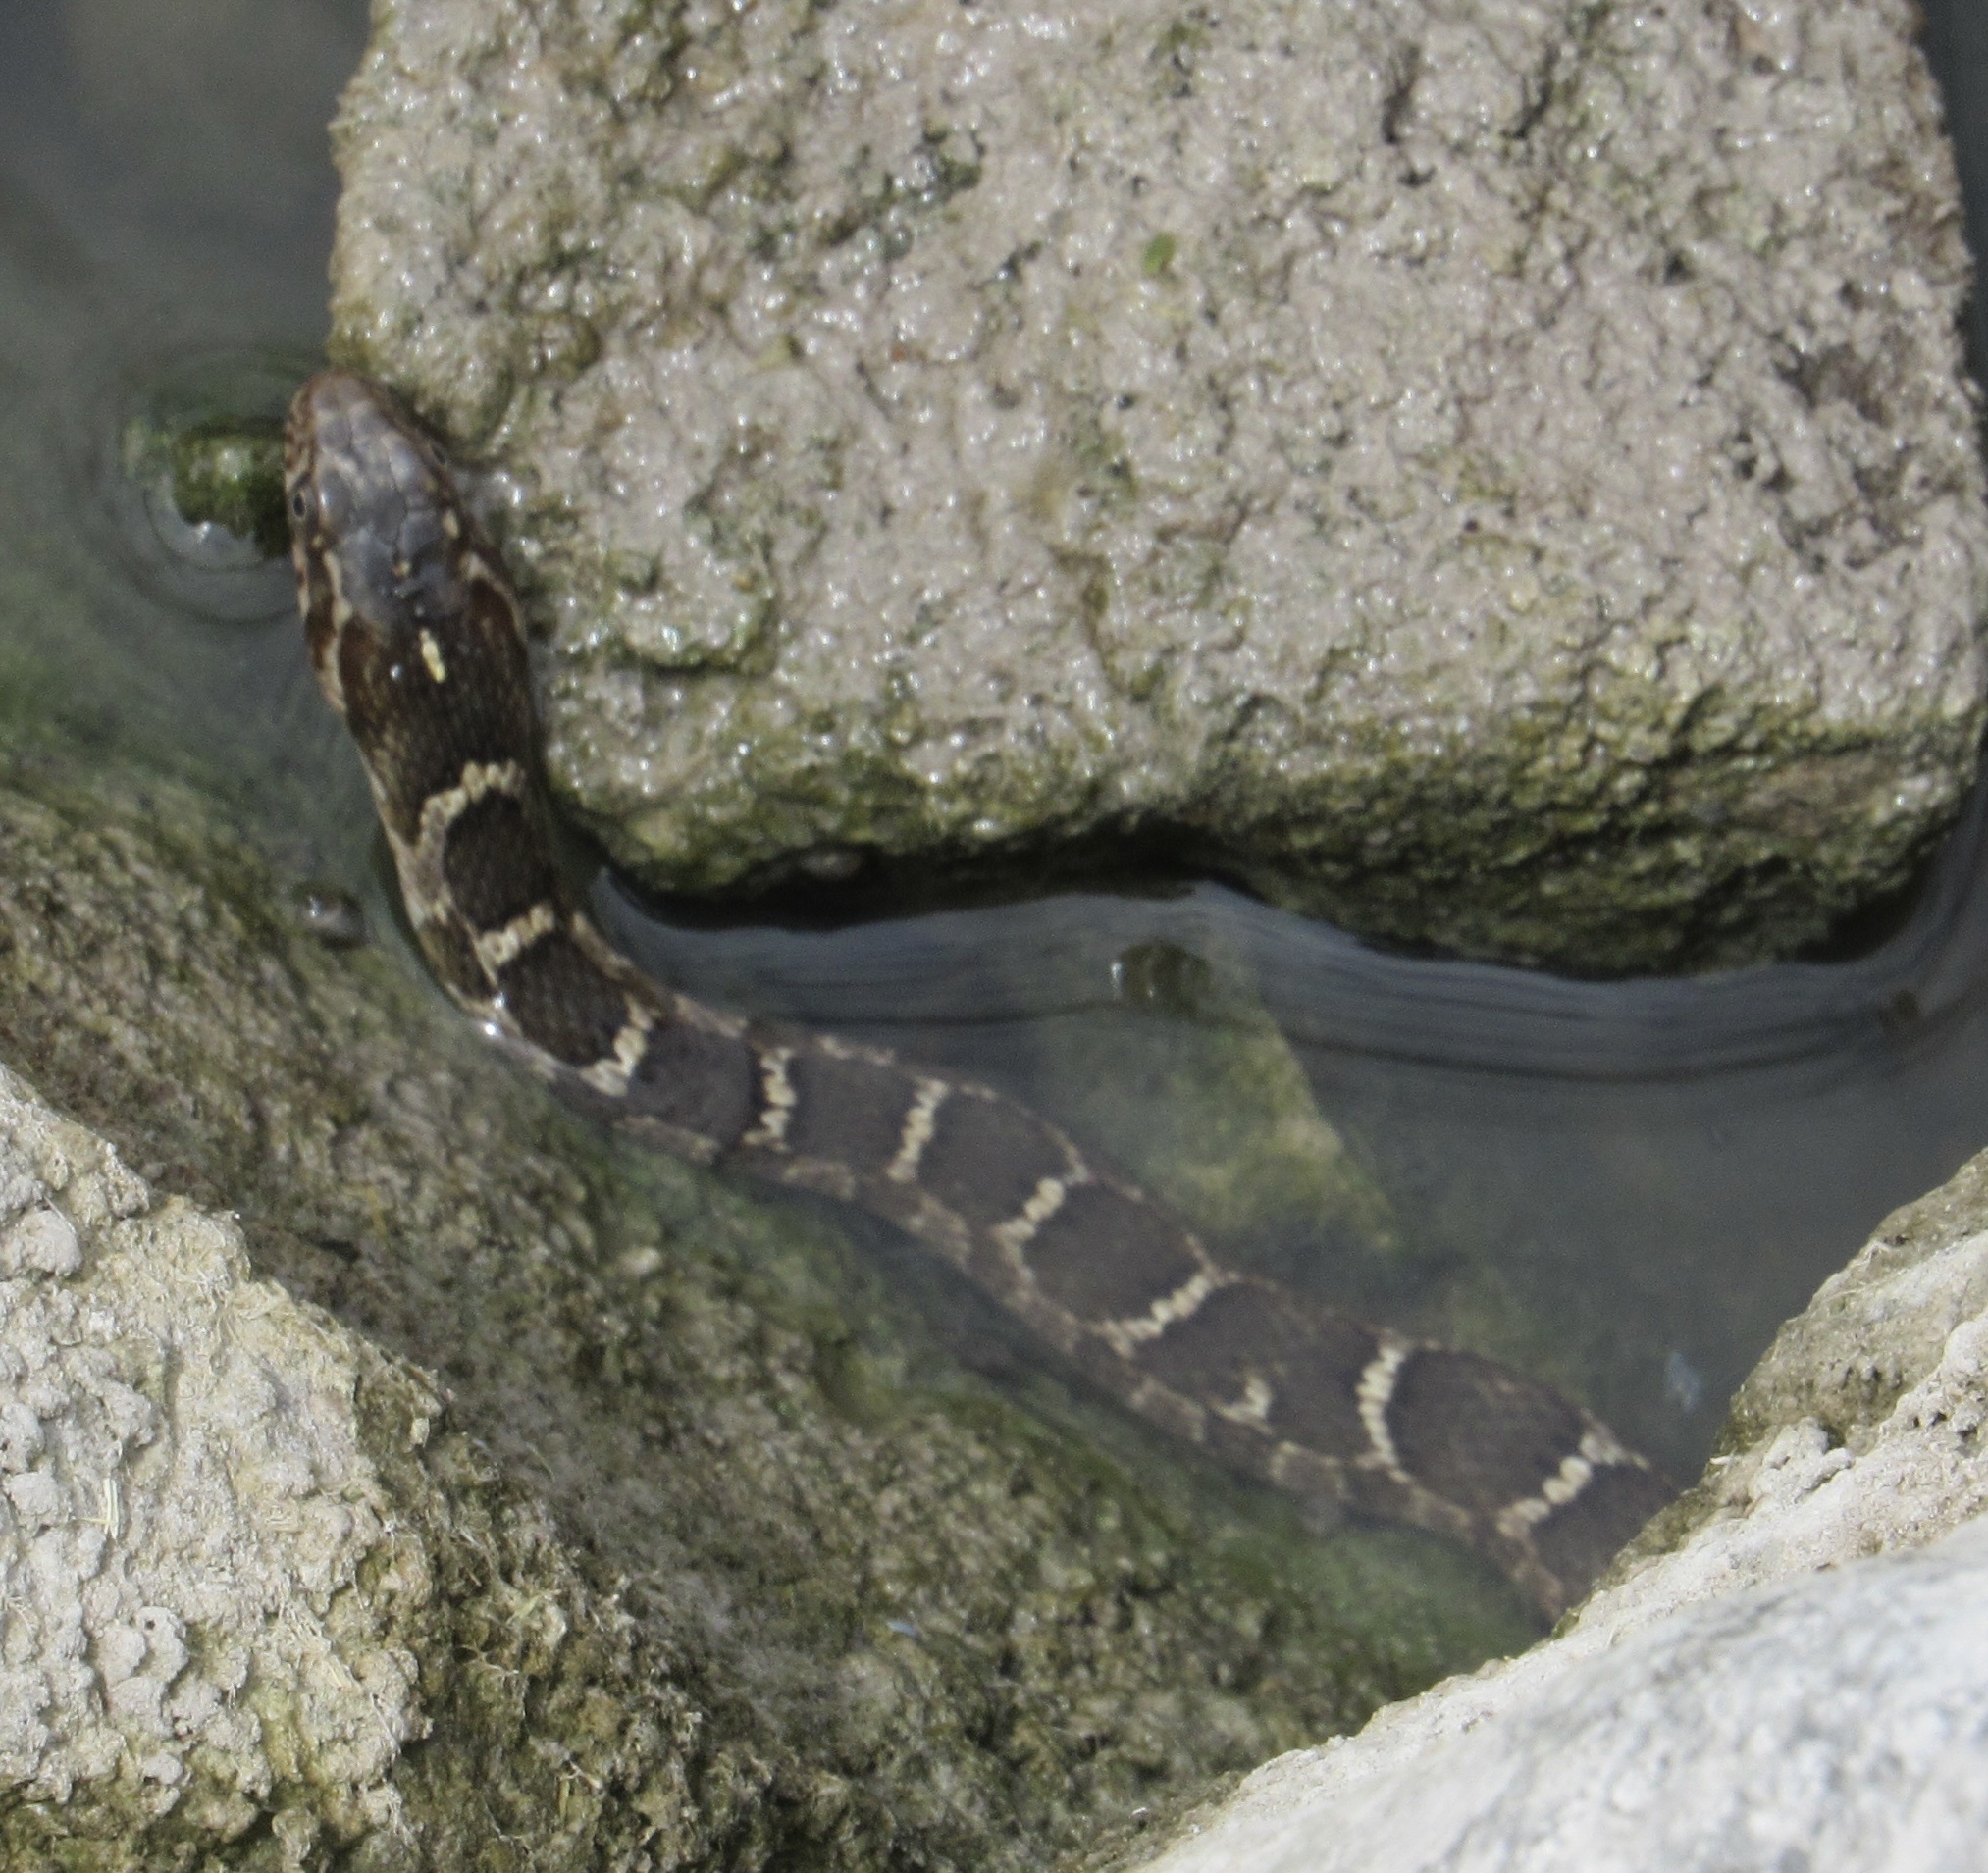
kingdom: Animalia
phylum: Chordata
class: Squamata
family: Colubridae
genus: Nerodia
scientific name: Nerodia erythrogaster
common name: Plainbelly water snake
